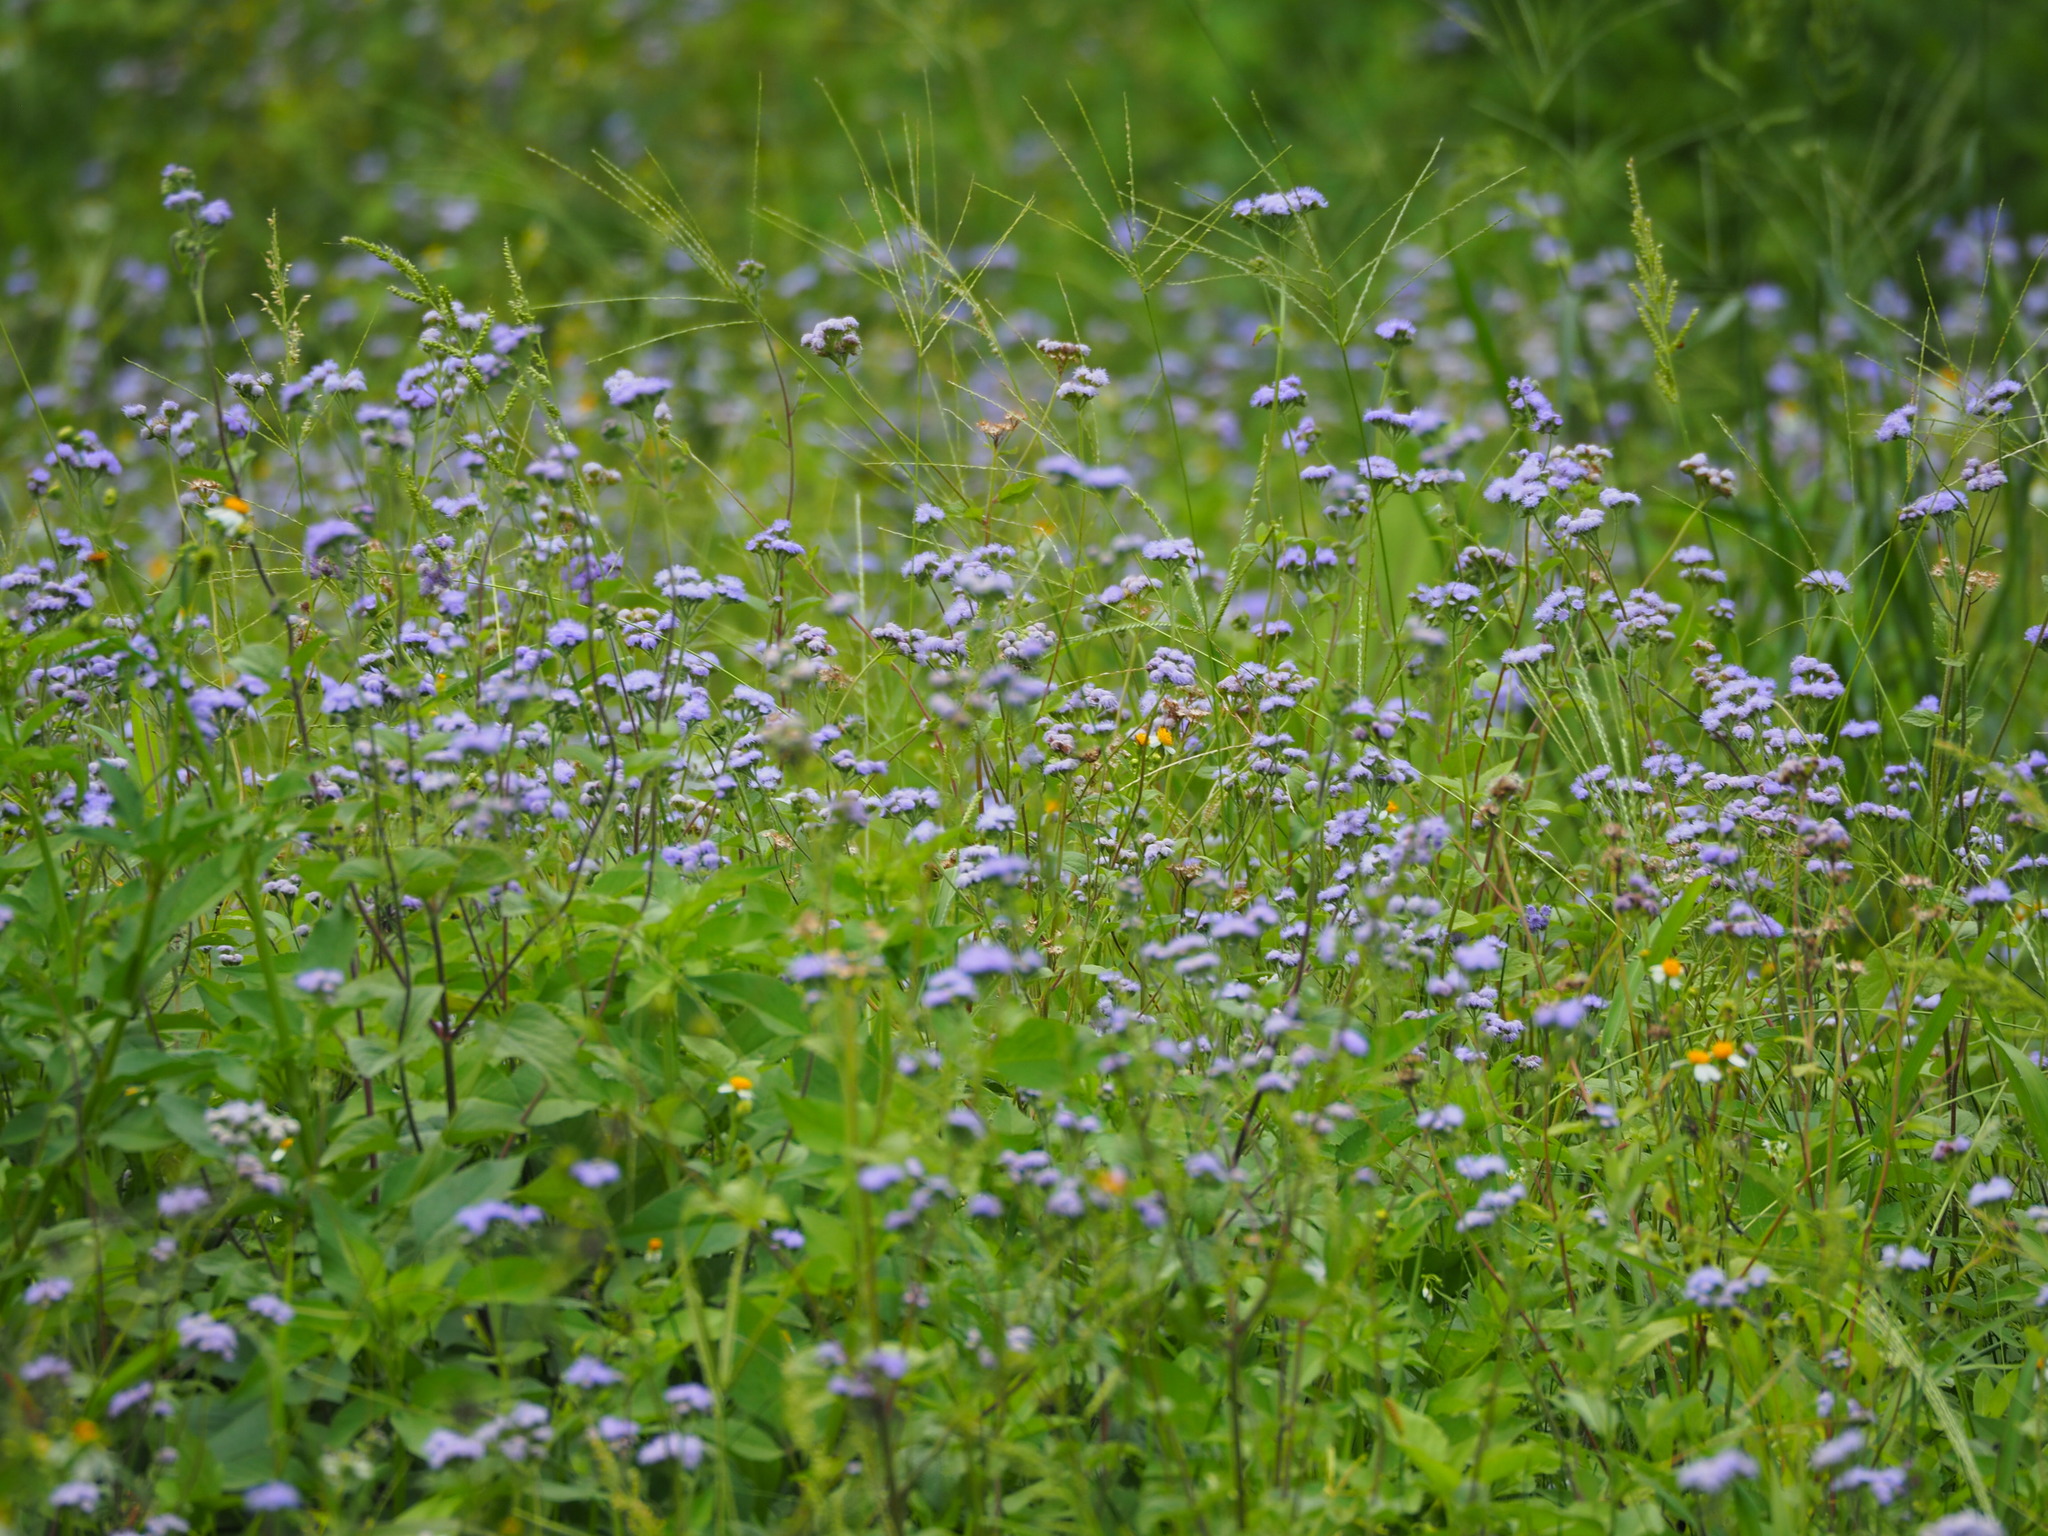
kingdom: Plantae
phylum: Tracheophyta
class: Magnoliopsida
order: Asterales
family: Asteraceae
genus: Ageratum
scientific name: Ageratum houstonianum
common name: Bluemink
